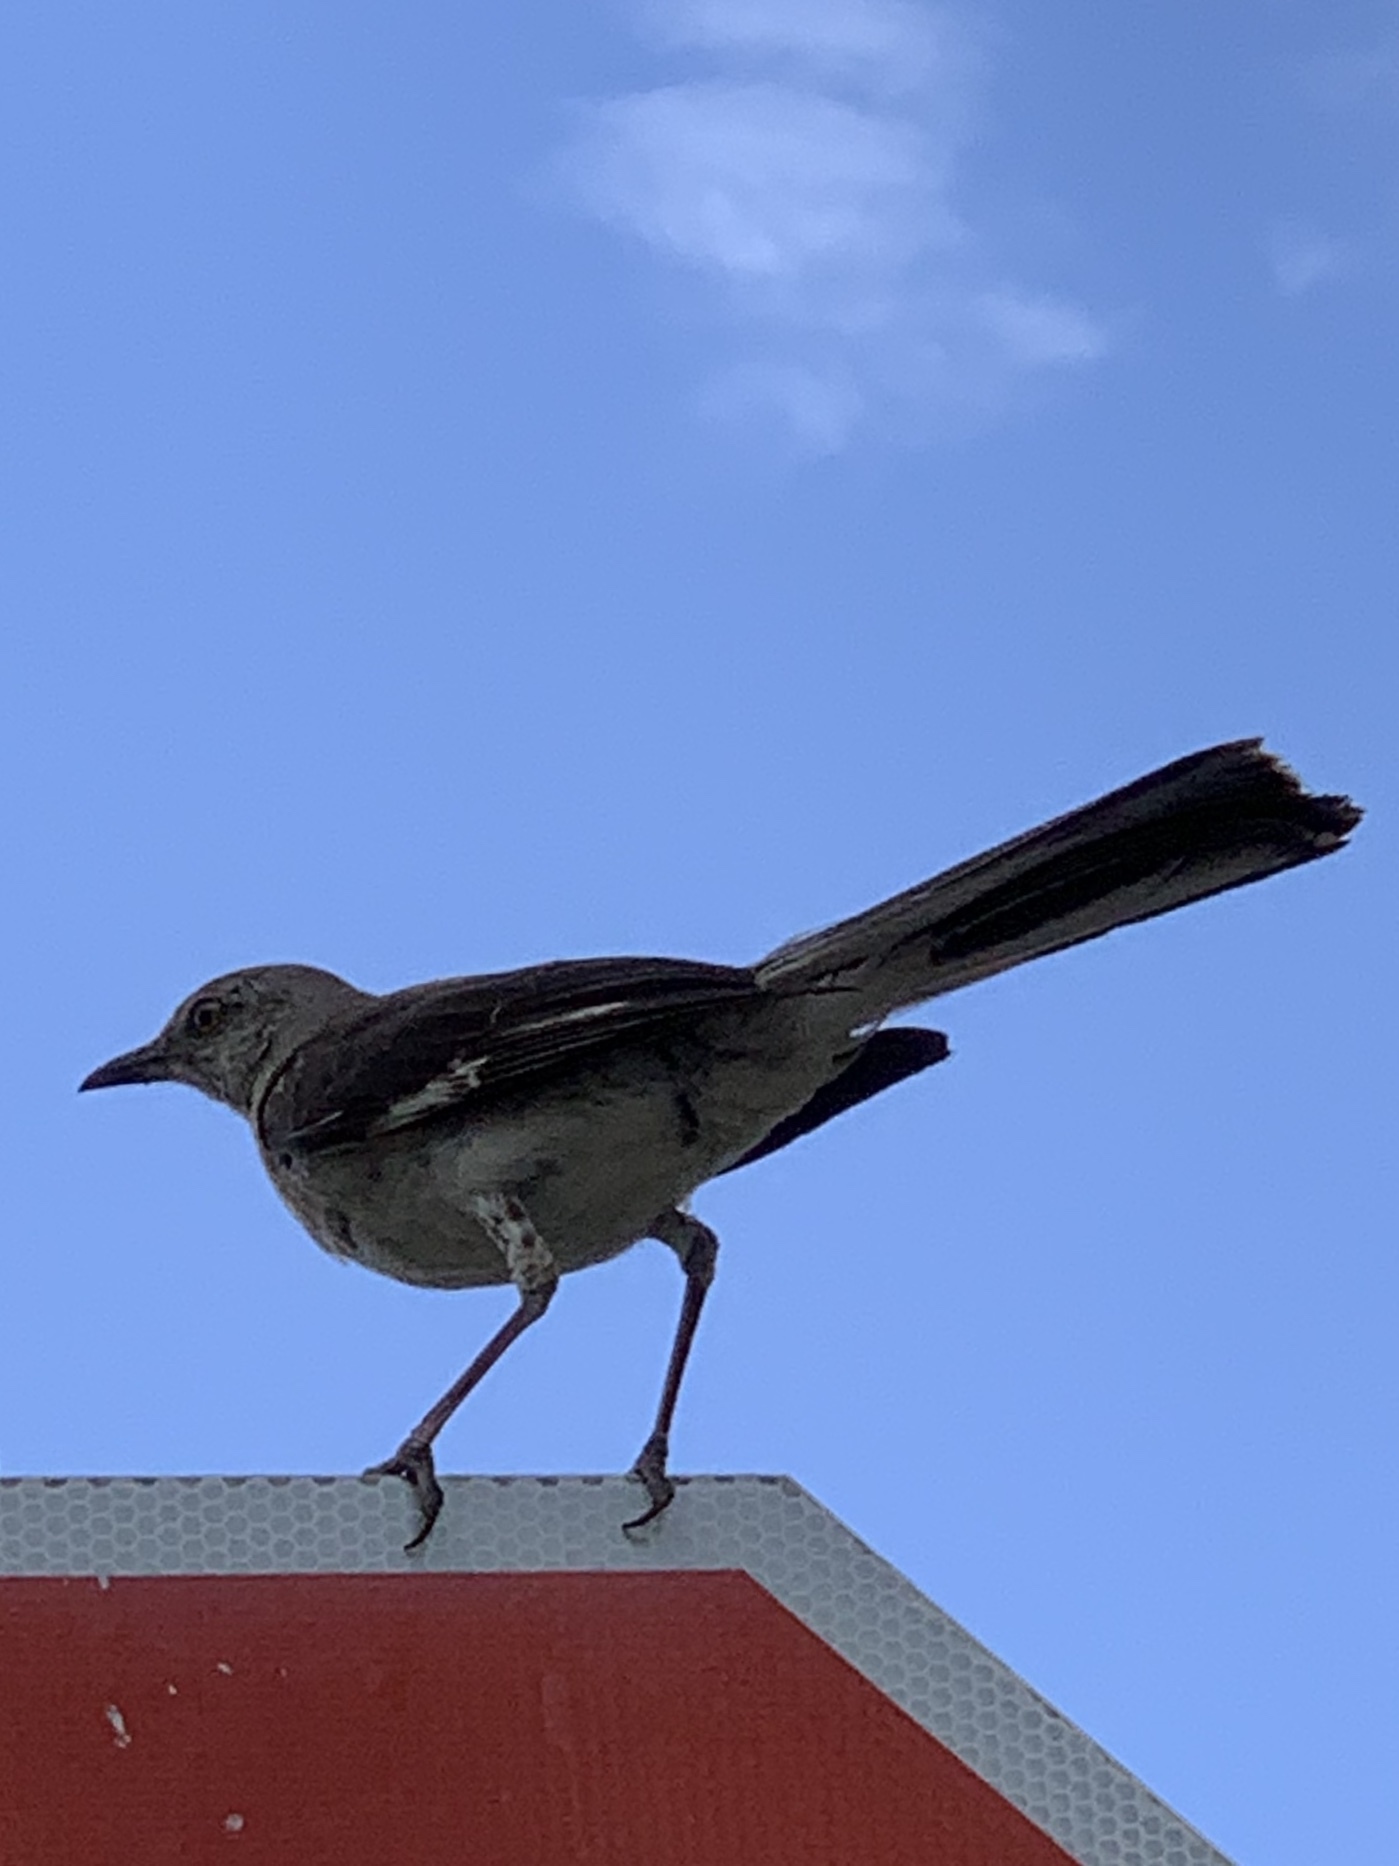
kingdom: Animalia
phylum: Chordata
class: Aves
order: Passeriformes
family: Mimidae
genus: Mimus
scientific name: Mimus polyglottos
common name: Northern mockingbird
